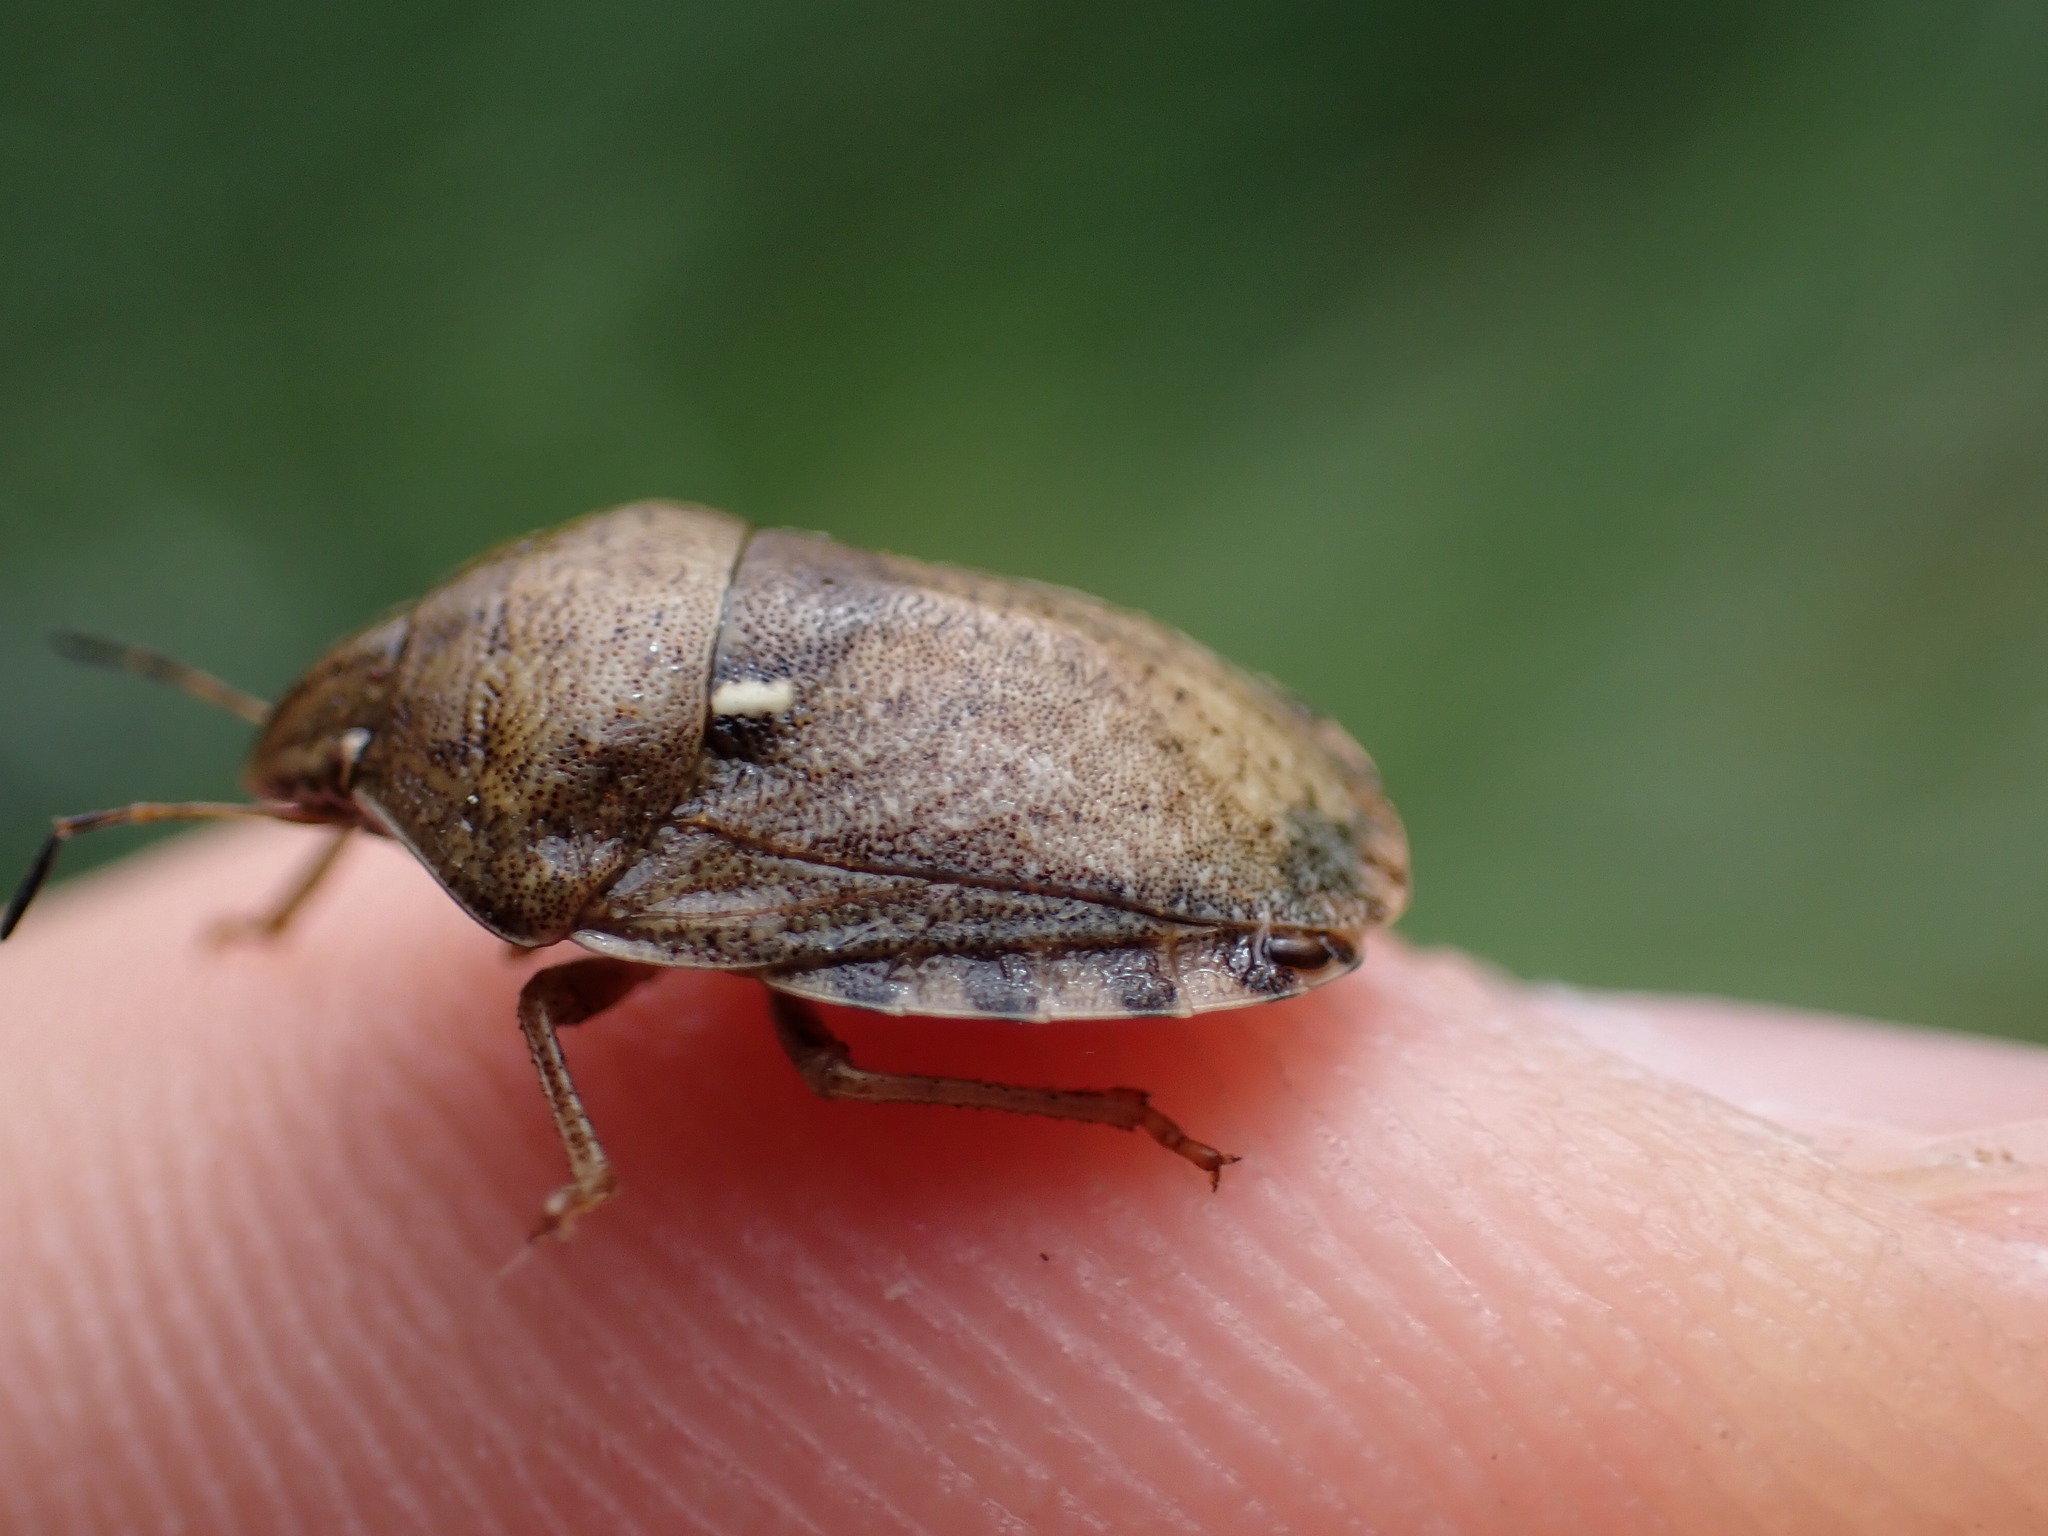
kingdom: Animalia
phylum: Arthropoda
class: Insecta
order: Hemiptera
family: Scutelleridae
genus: Eurygaster
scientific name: Eurygaster maura
